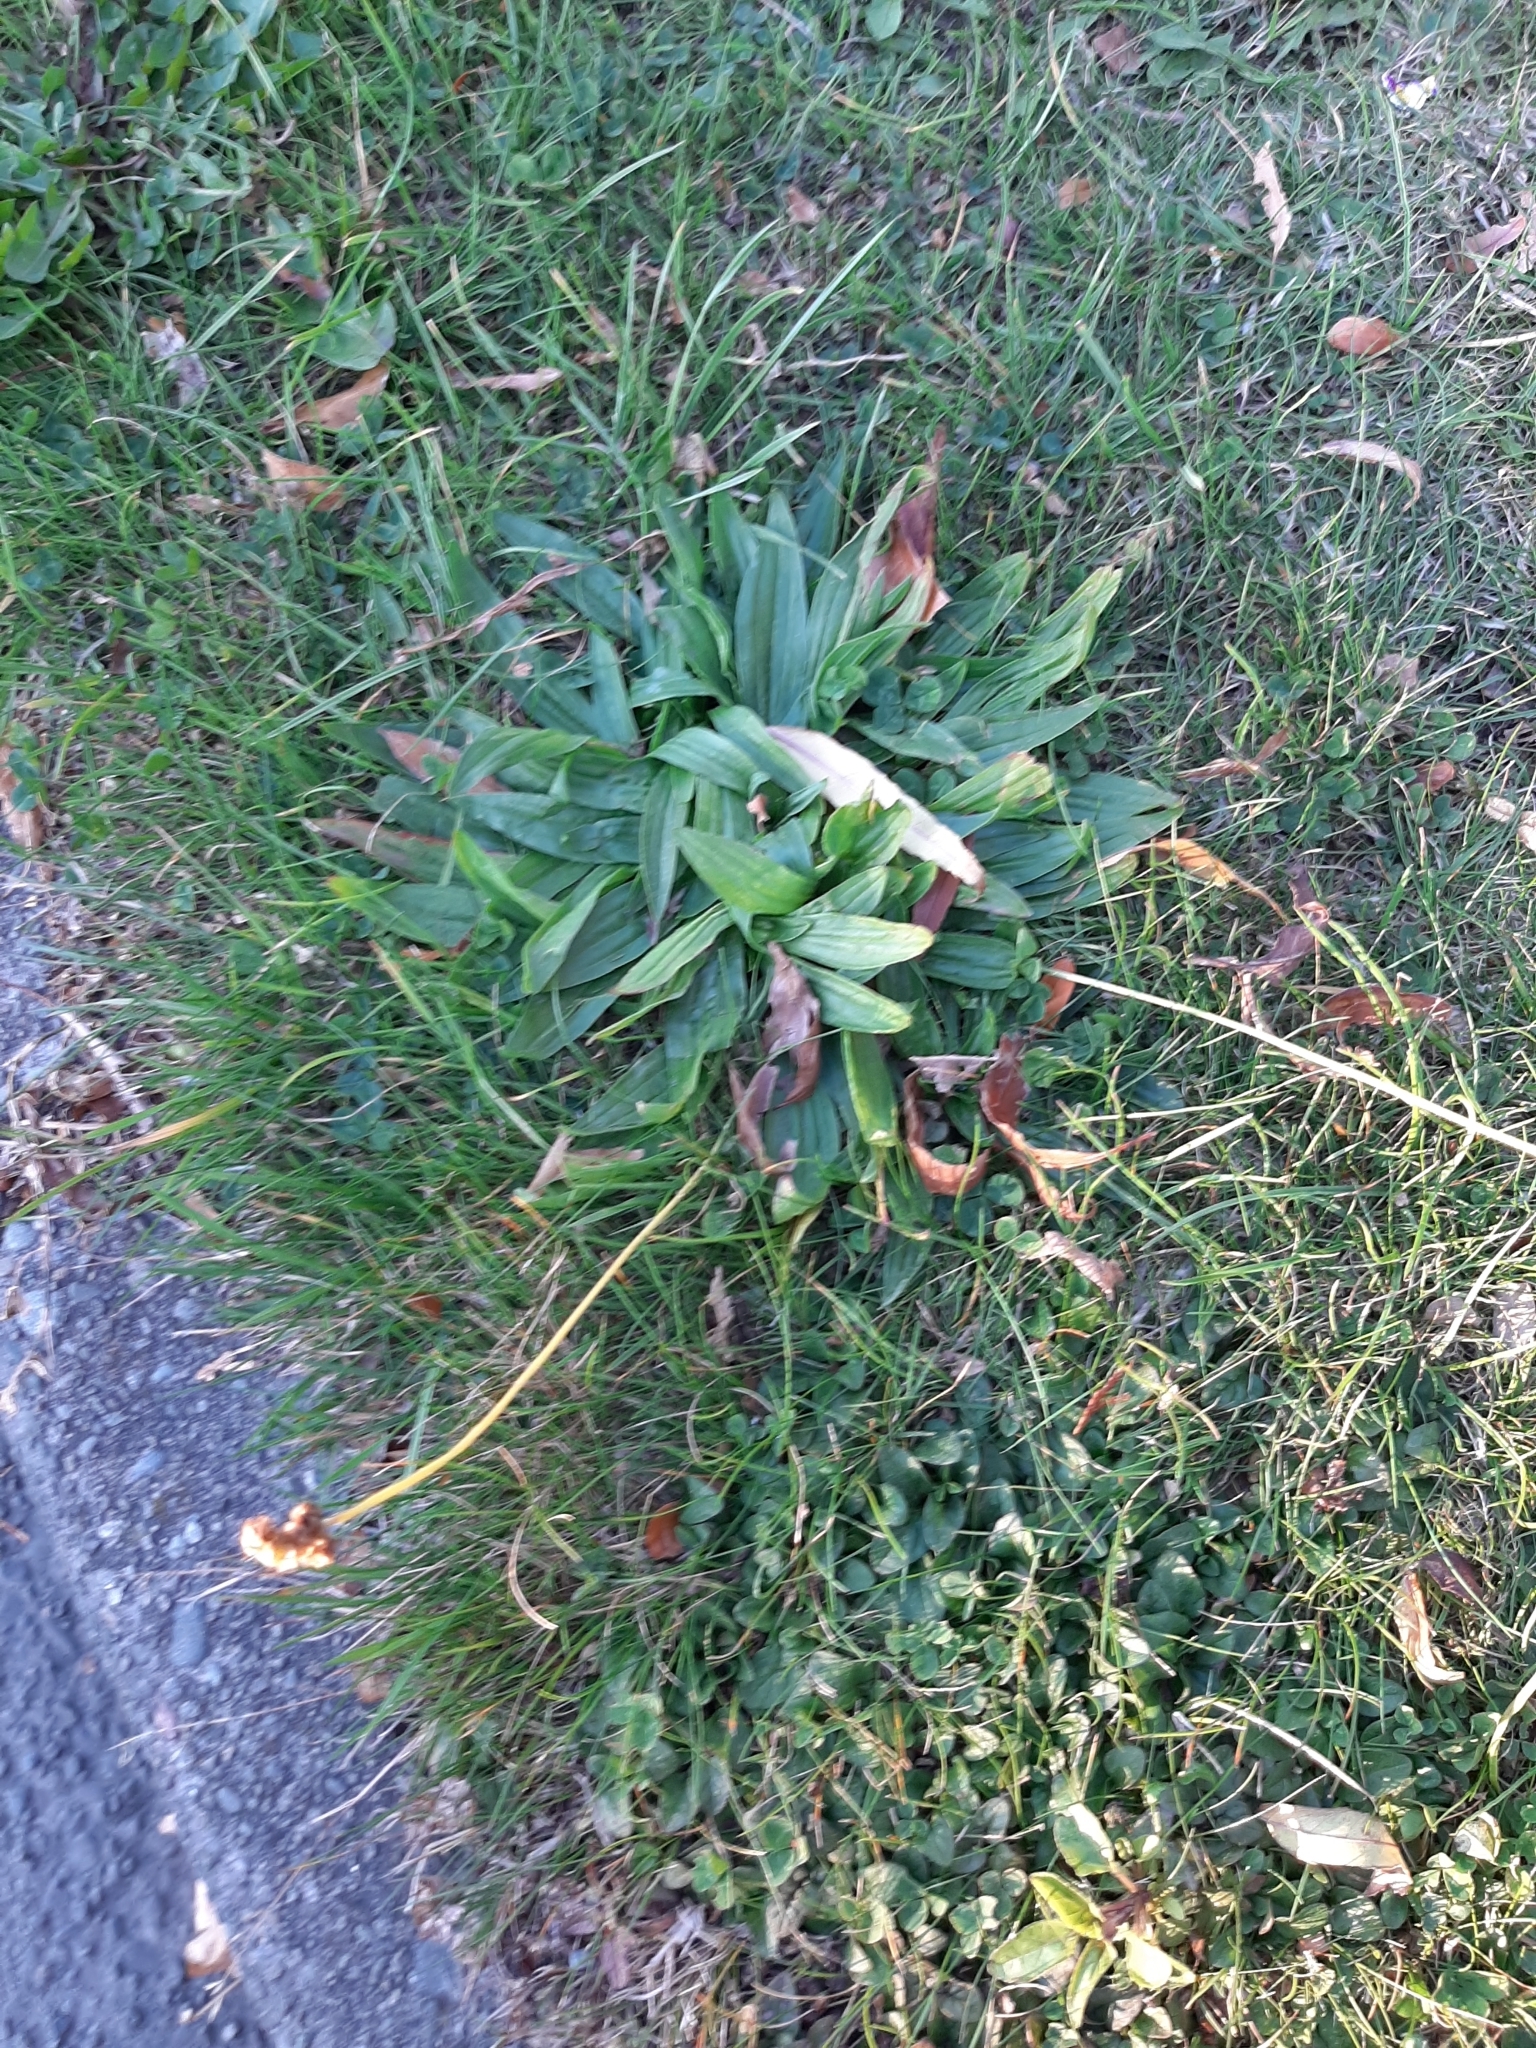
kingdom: Plantae
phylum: Tracheophyta
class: Magnoliopsida
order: Lamiales
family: Plantaginaceae
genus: Plantago
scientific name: Plantago lanceolata
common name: Ribwort plantain
